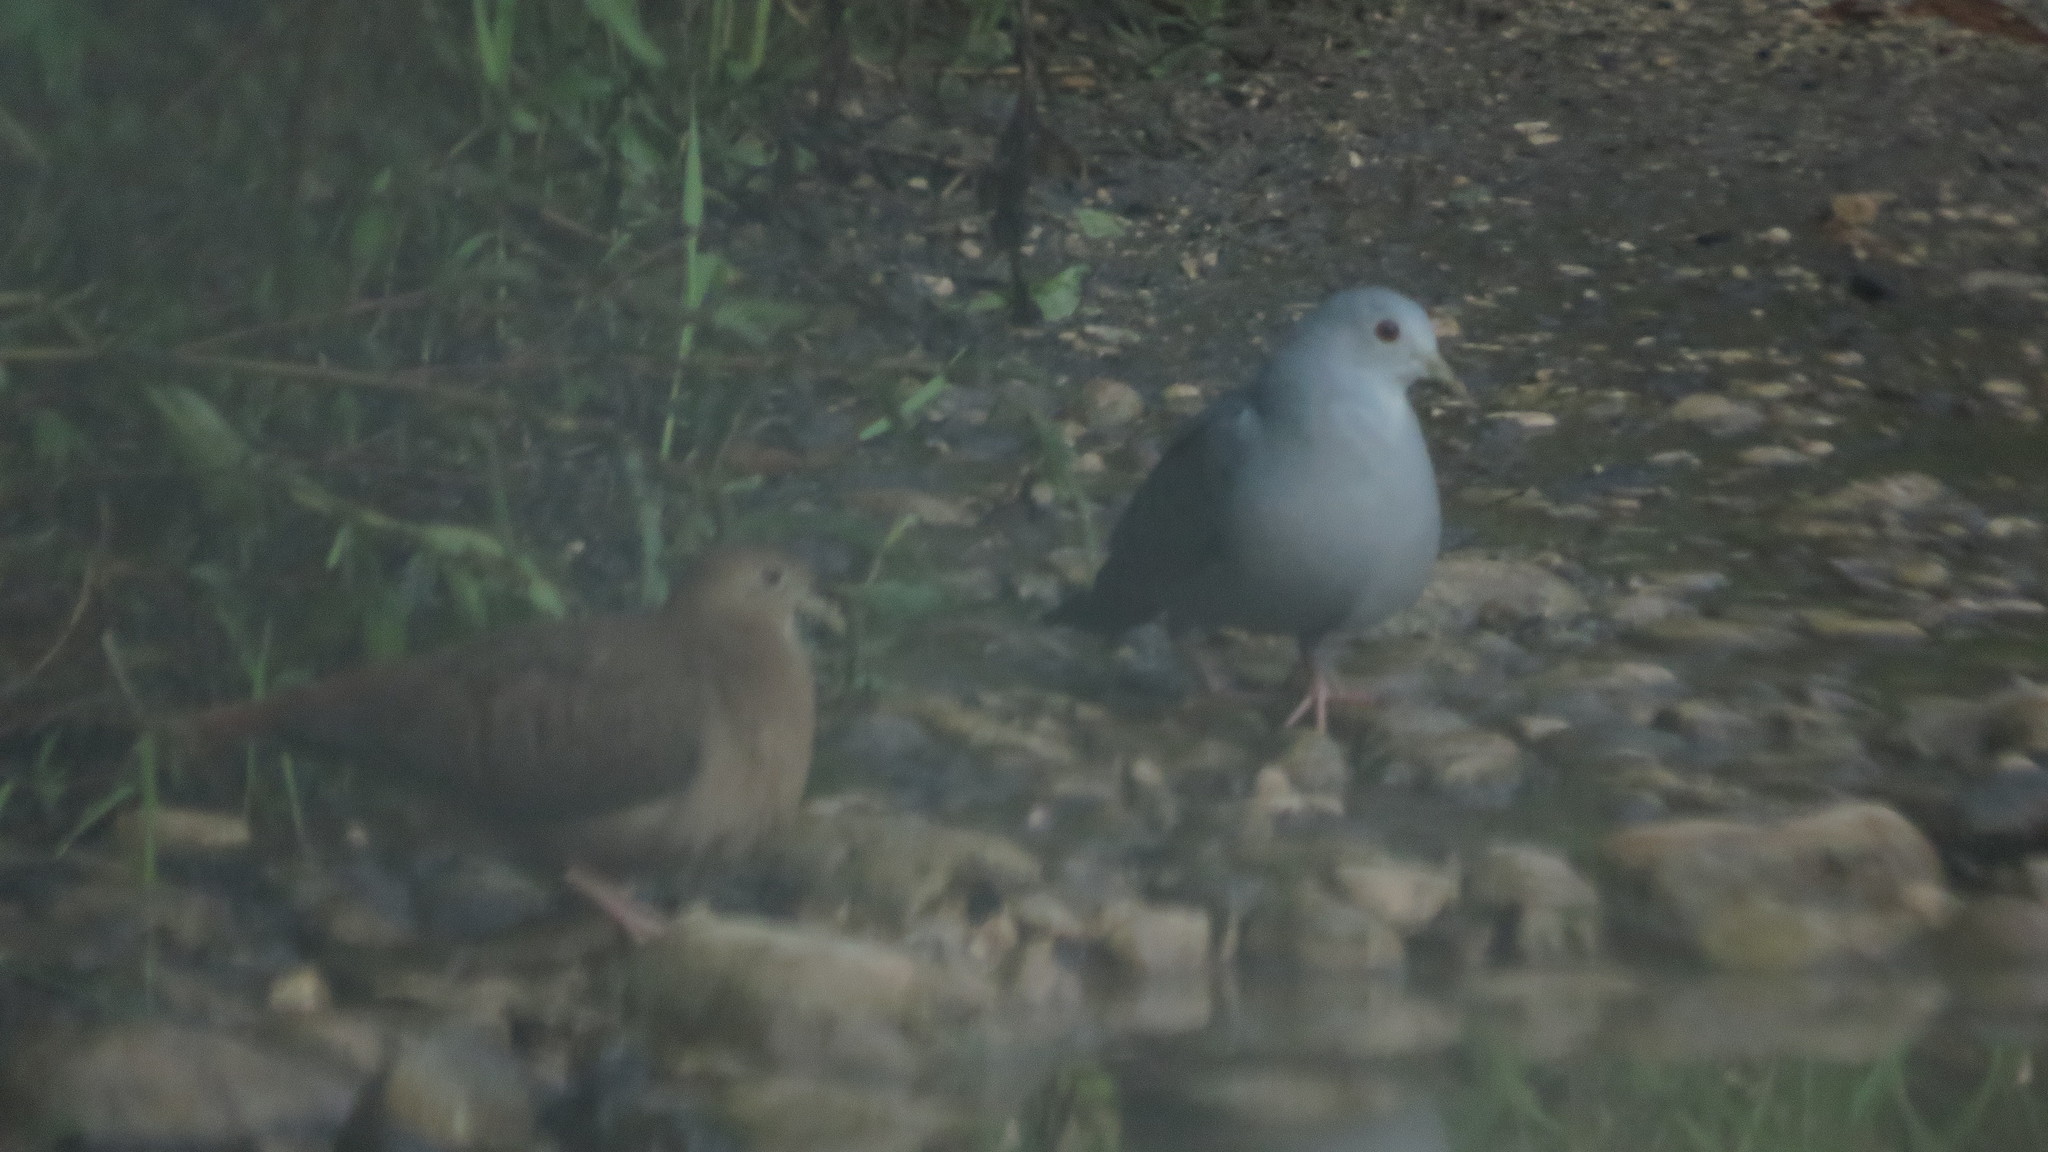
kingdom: Animalia
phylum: Chordata
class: Aves
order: Columbiformes
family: Columbidae
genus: Claravis
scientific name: Claravis pretiosa
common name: Blue ground-dove
